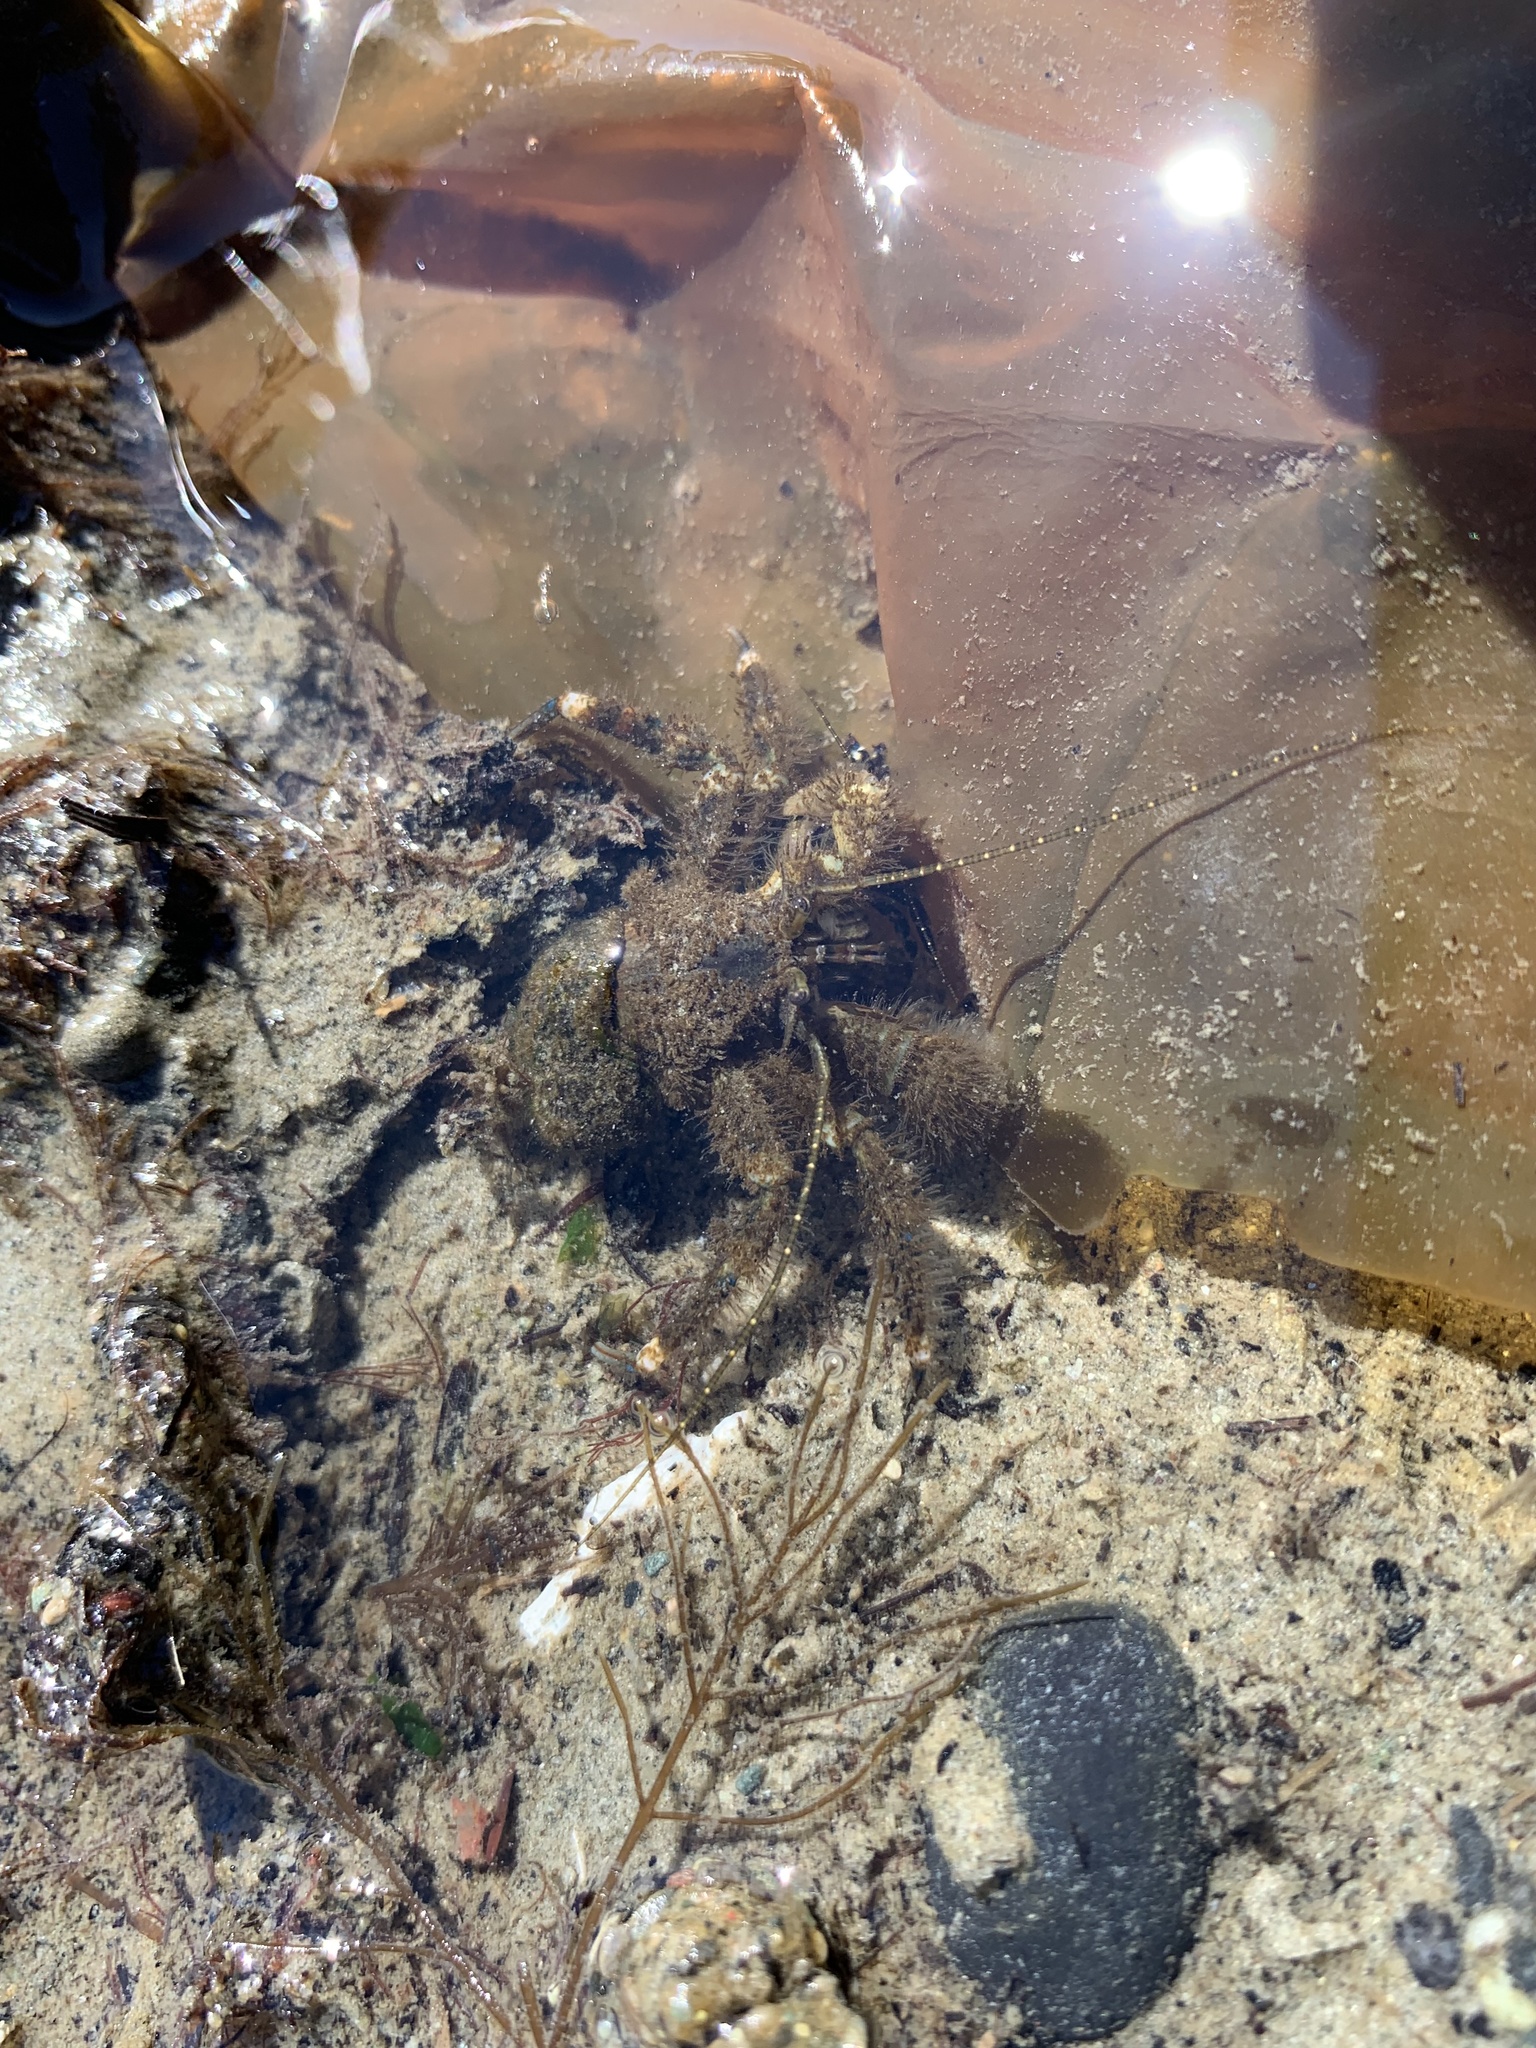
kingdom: Animalia
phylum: Arthropoda
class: Malacostraca
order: Decapoda
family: Paguridae
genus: Pagurus
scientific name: Pagurus hirsutiusculus
